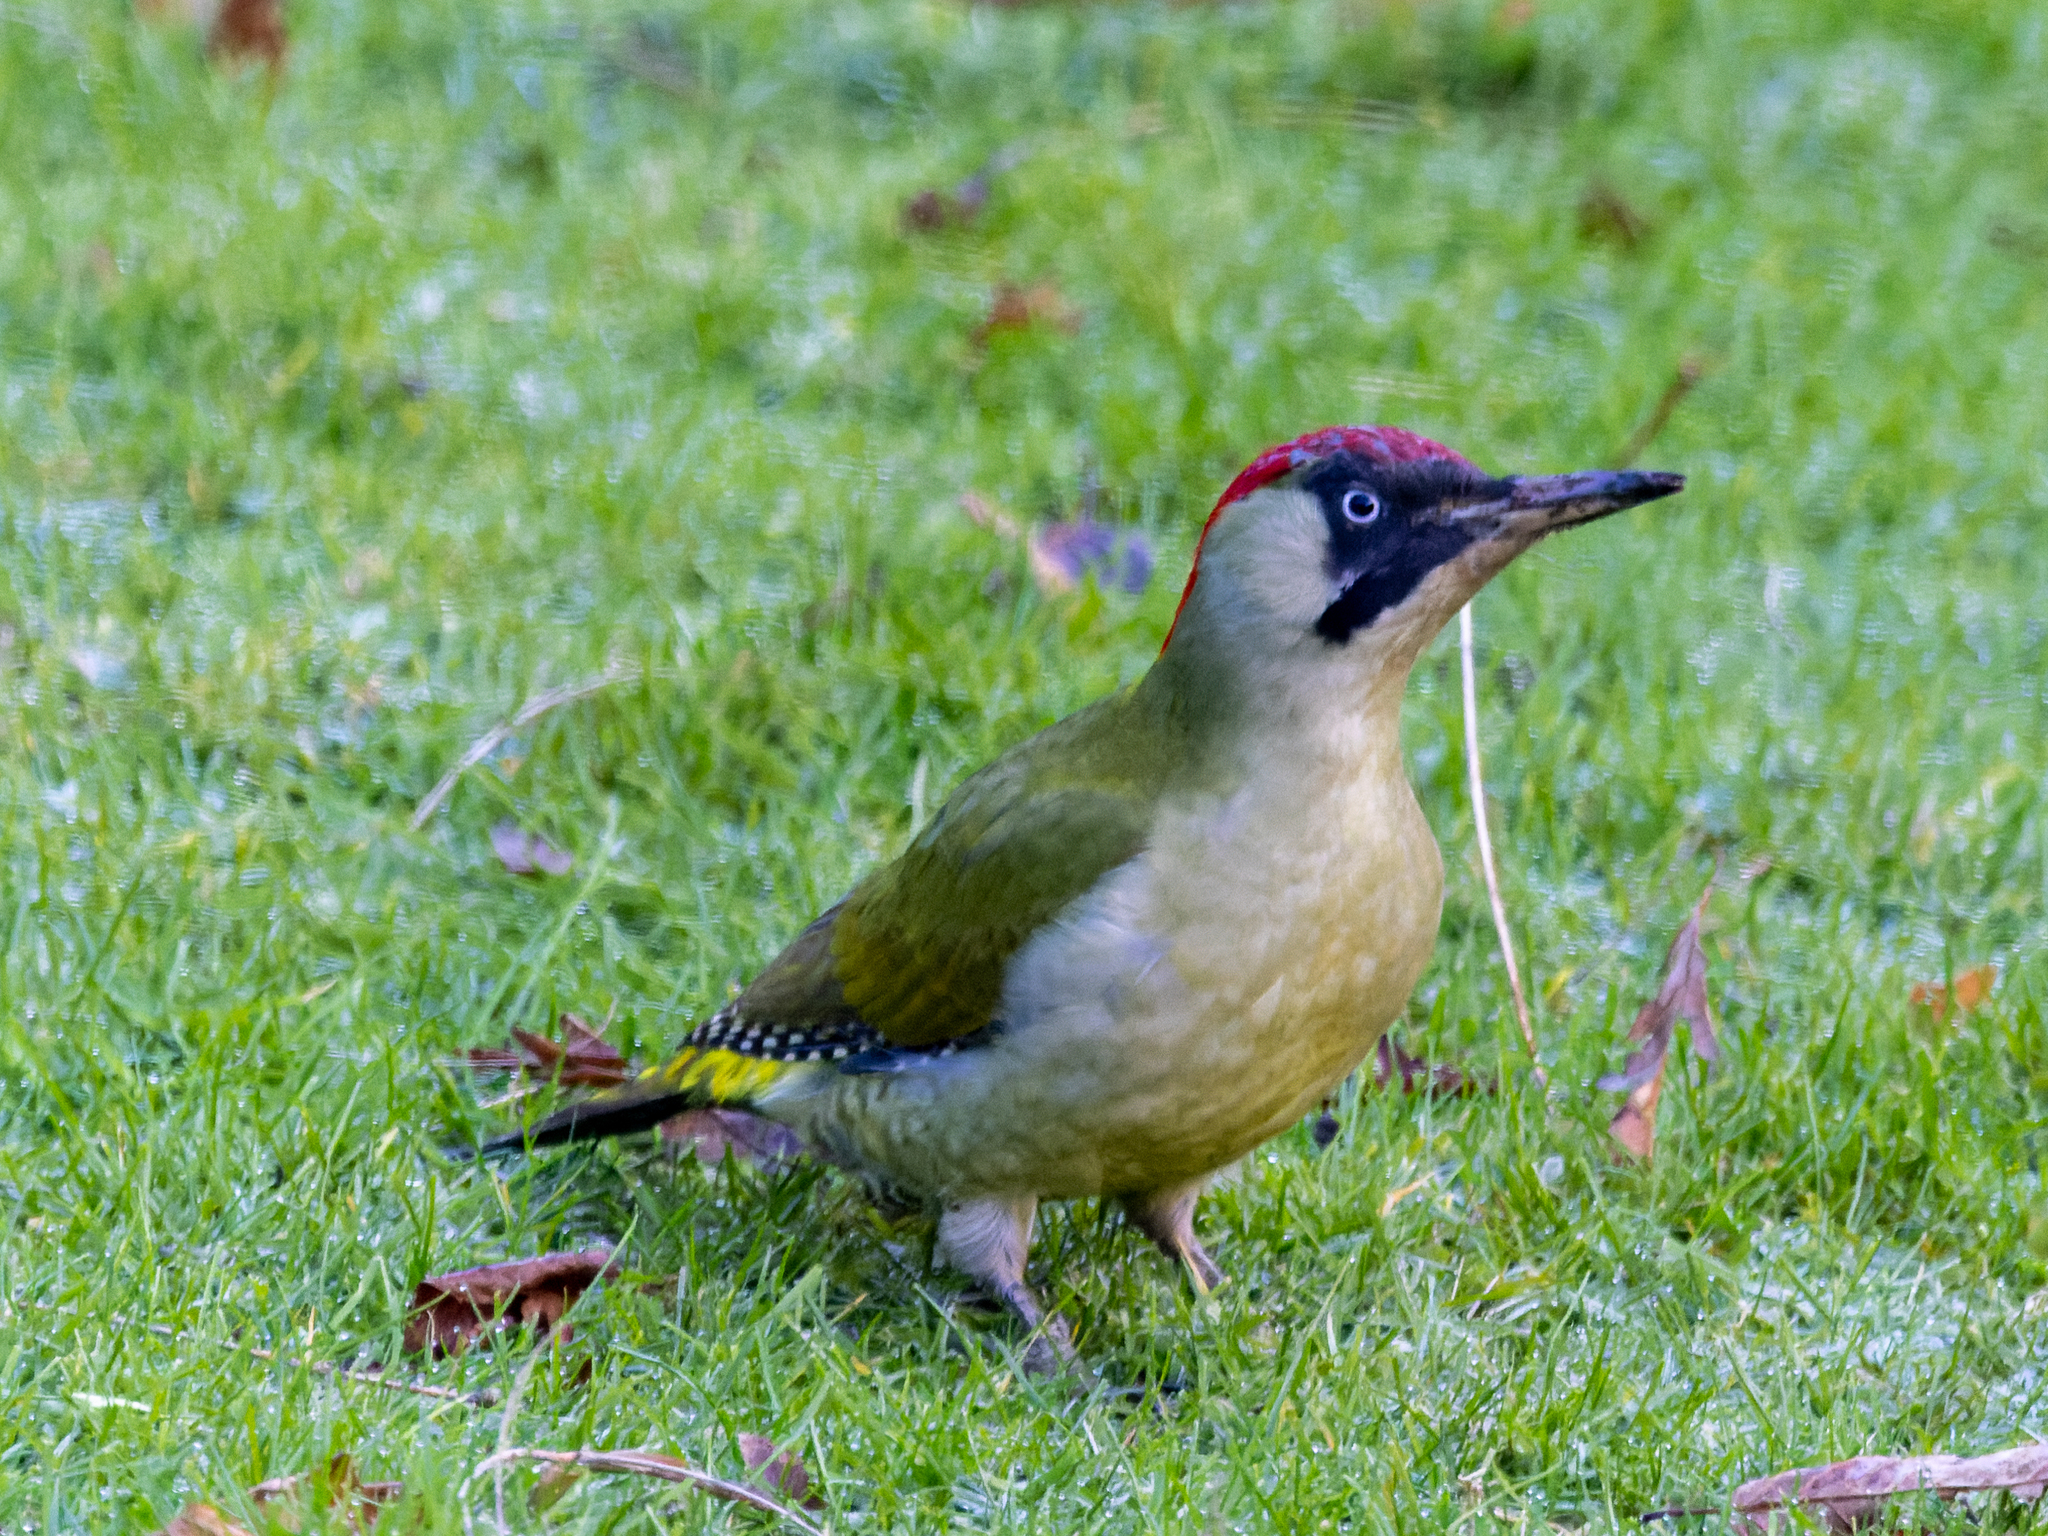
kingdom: Animalia
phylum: Chordata
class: Aves
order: Piciformes
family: Picidae
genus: Picus
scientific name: Picus viridis
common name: European green woodpecker
